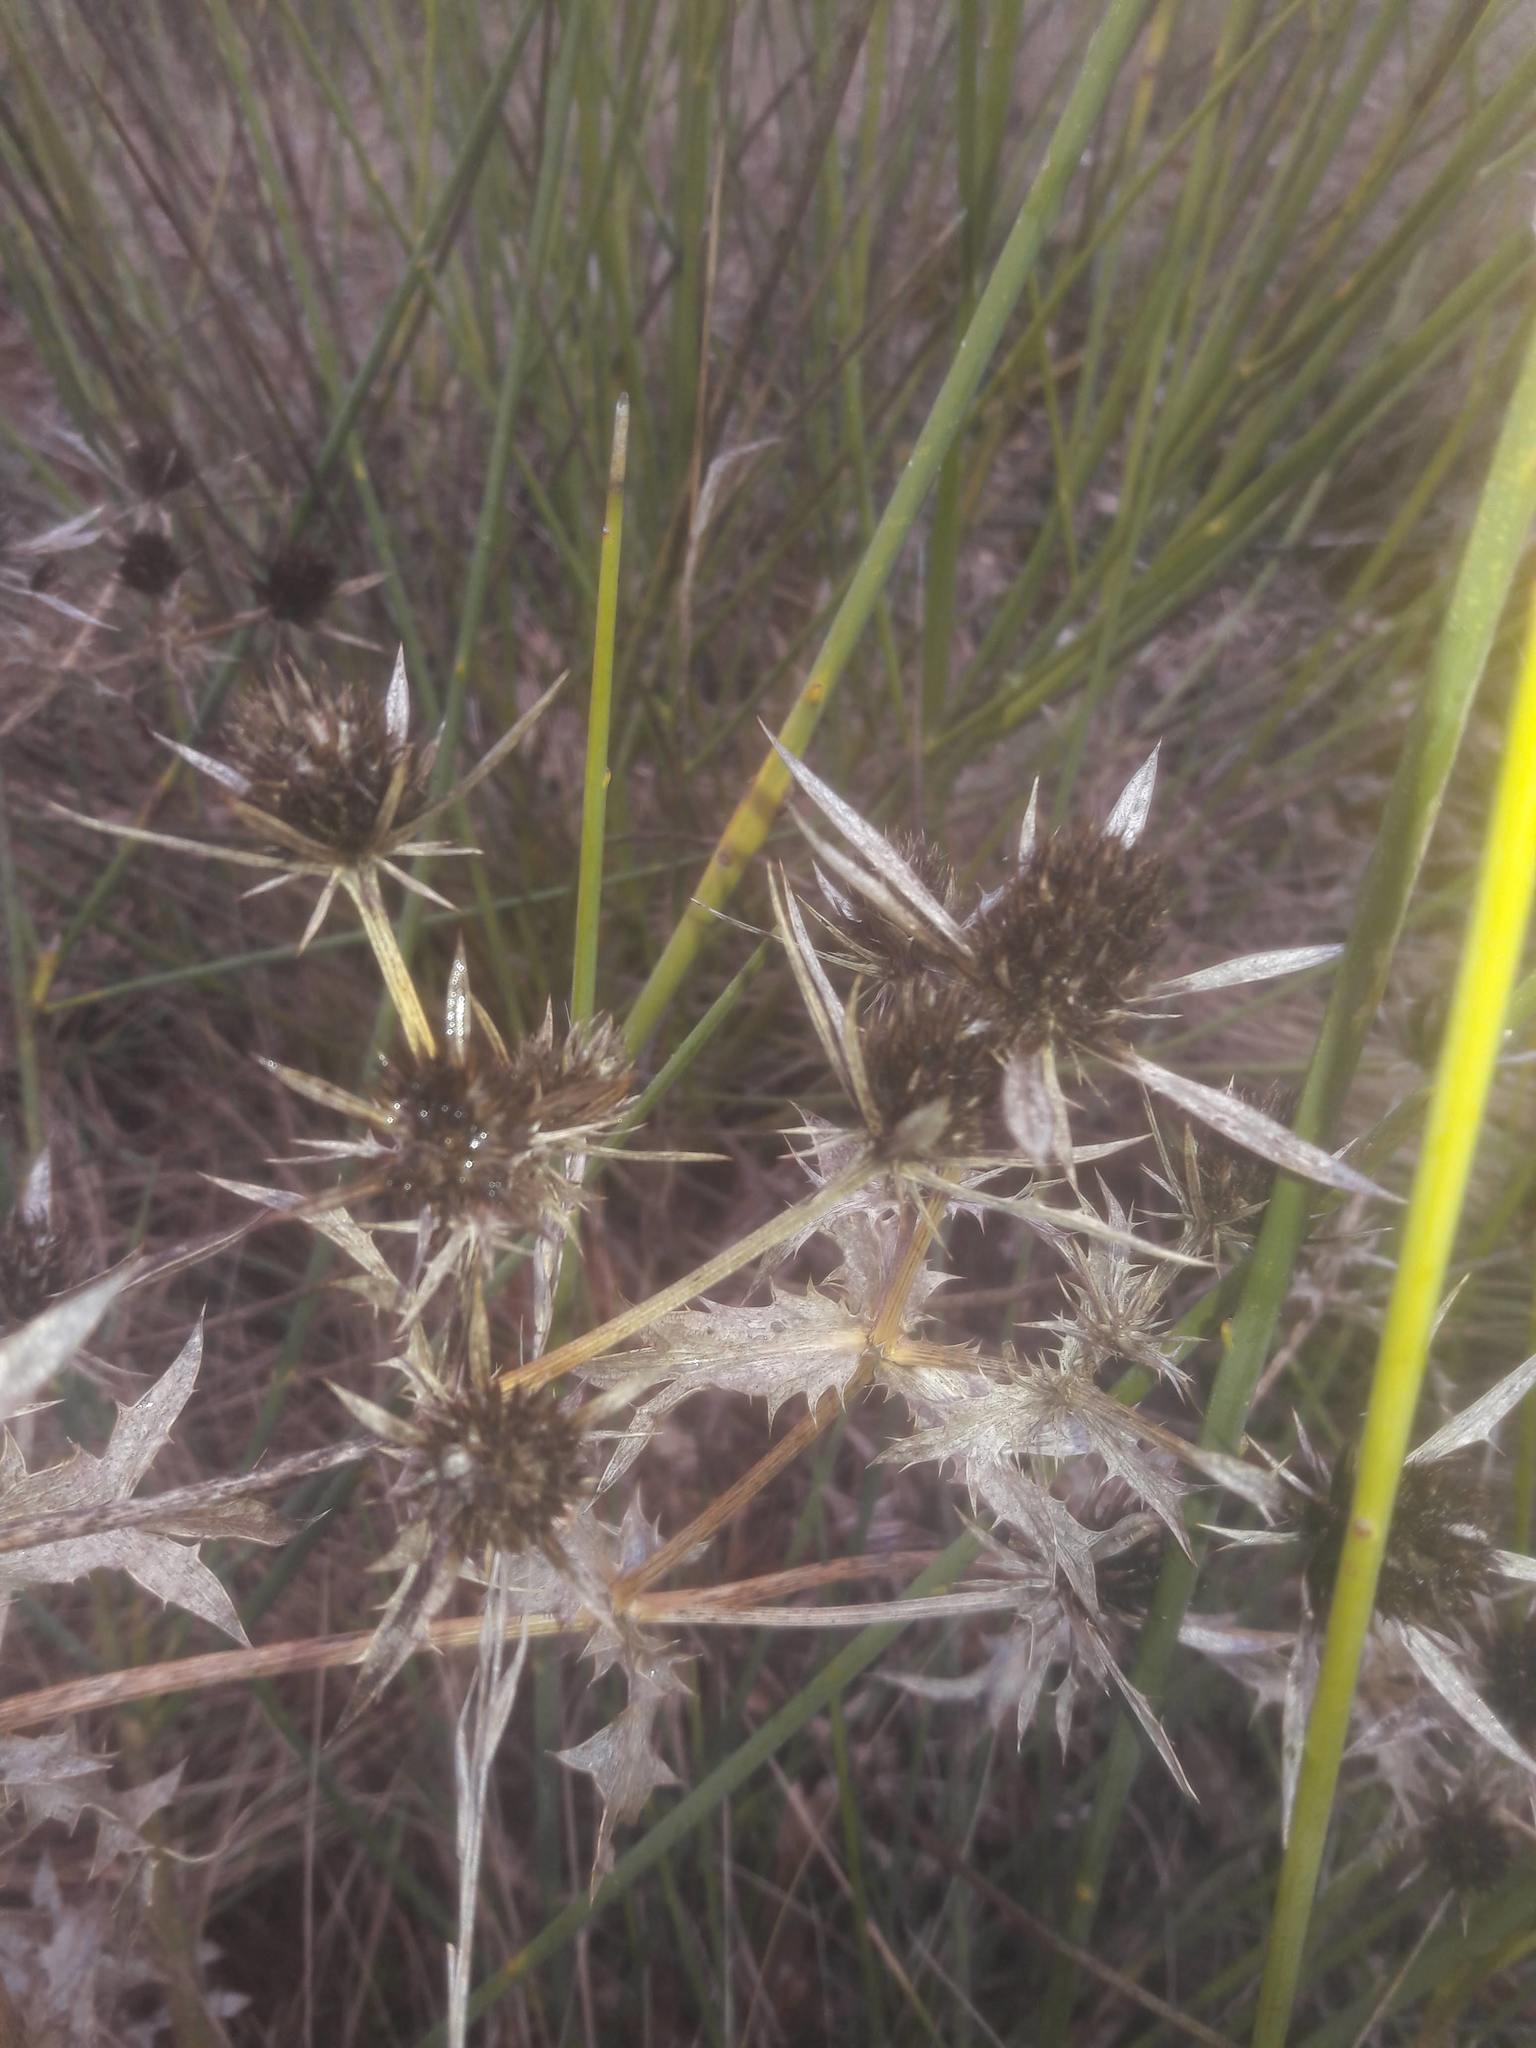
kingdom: Plantae
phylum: Tracheophyta
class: Magnoliopsida
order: Apiales
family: Apiaceae
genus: Eryngium
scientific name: Eryngium campestre
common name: Field eryngo
